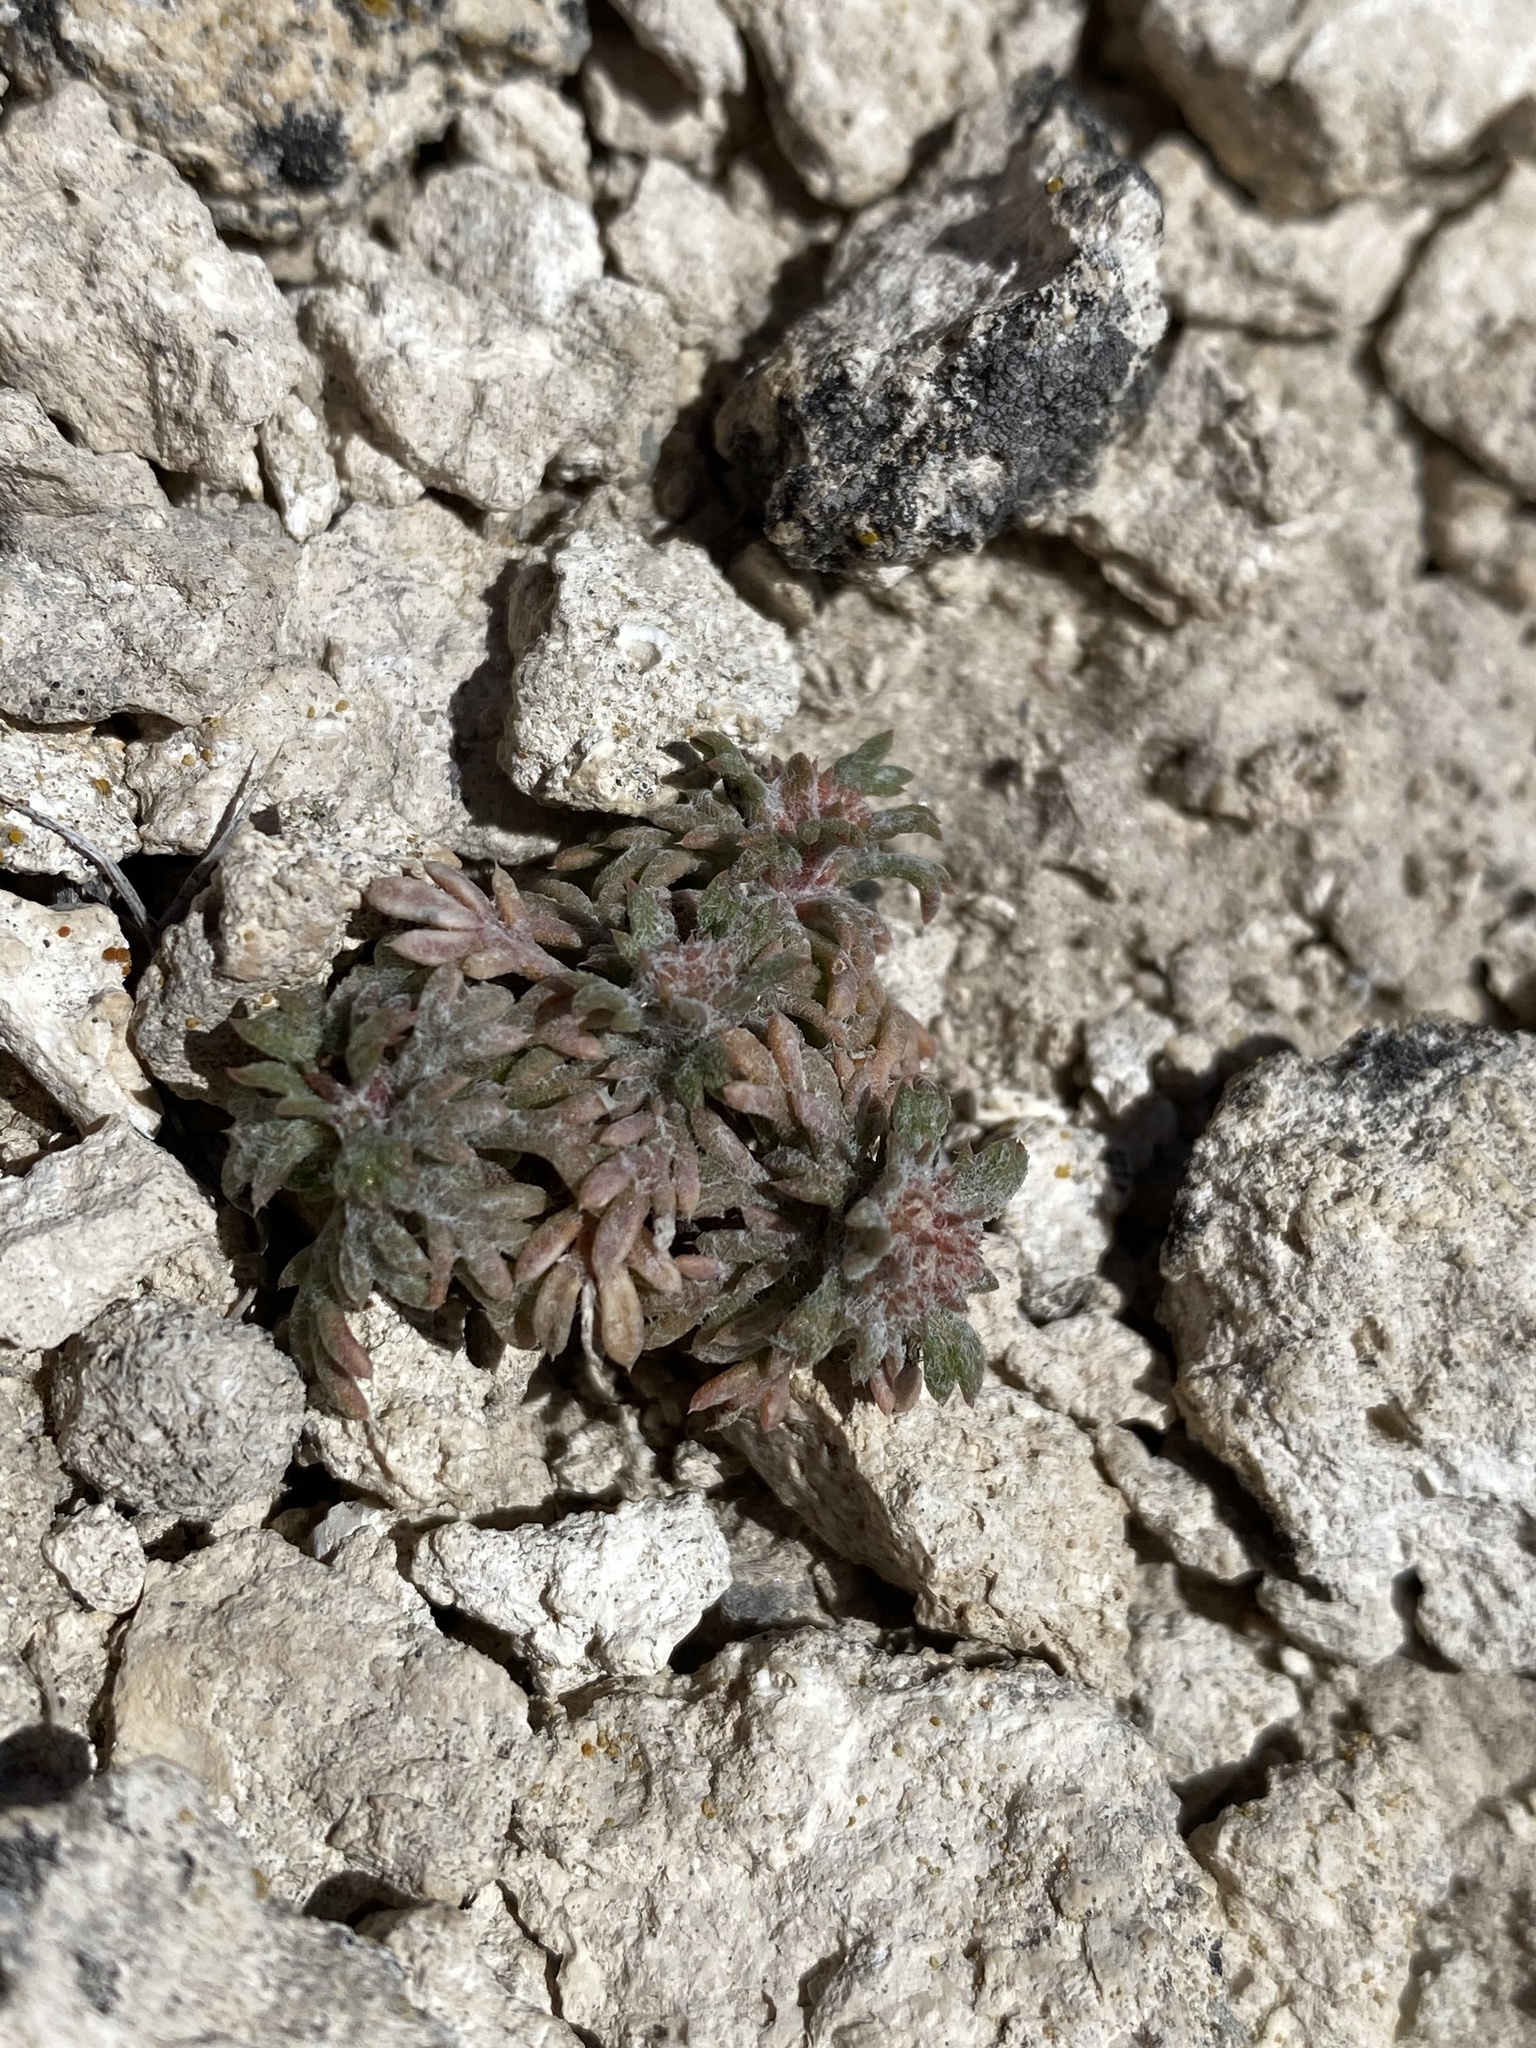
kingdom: Plantae
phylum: Tracheophyta
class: Magnoliopsida
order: Ericales
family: Polemoniaceae
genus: Ipomopsis
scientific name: Ipomopsis congesta
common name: Ball-head gilia
